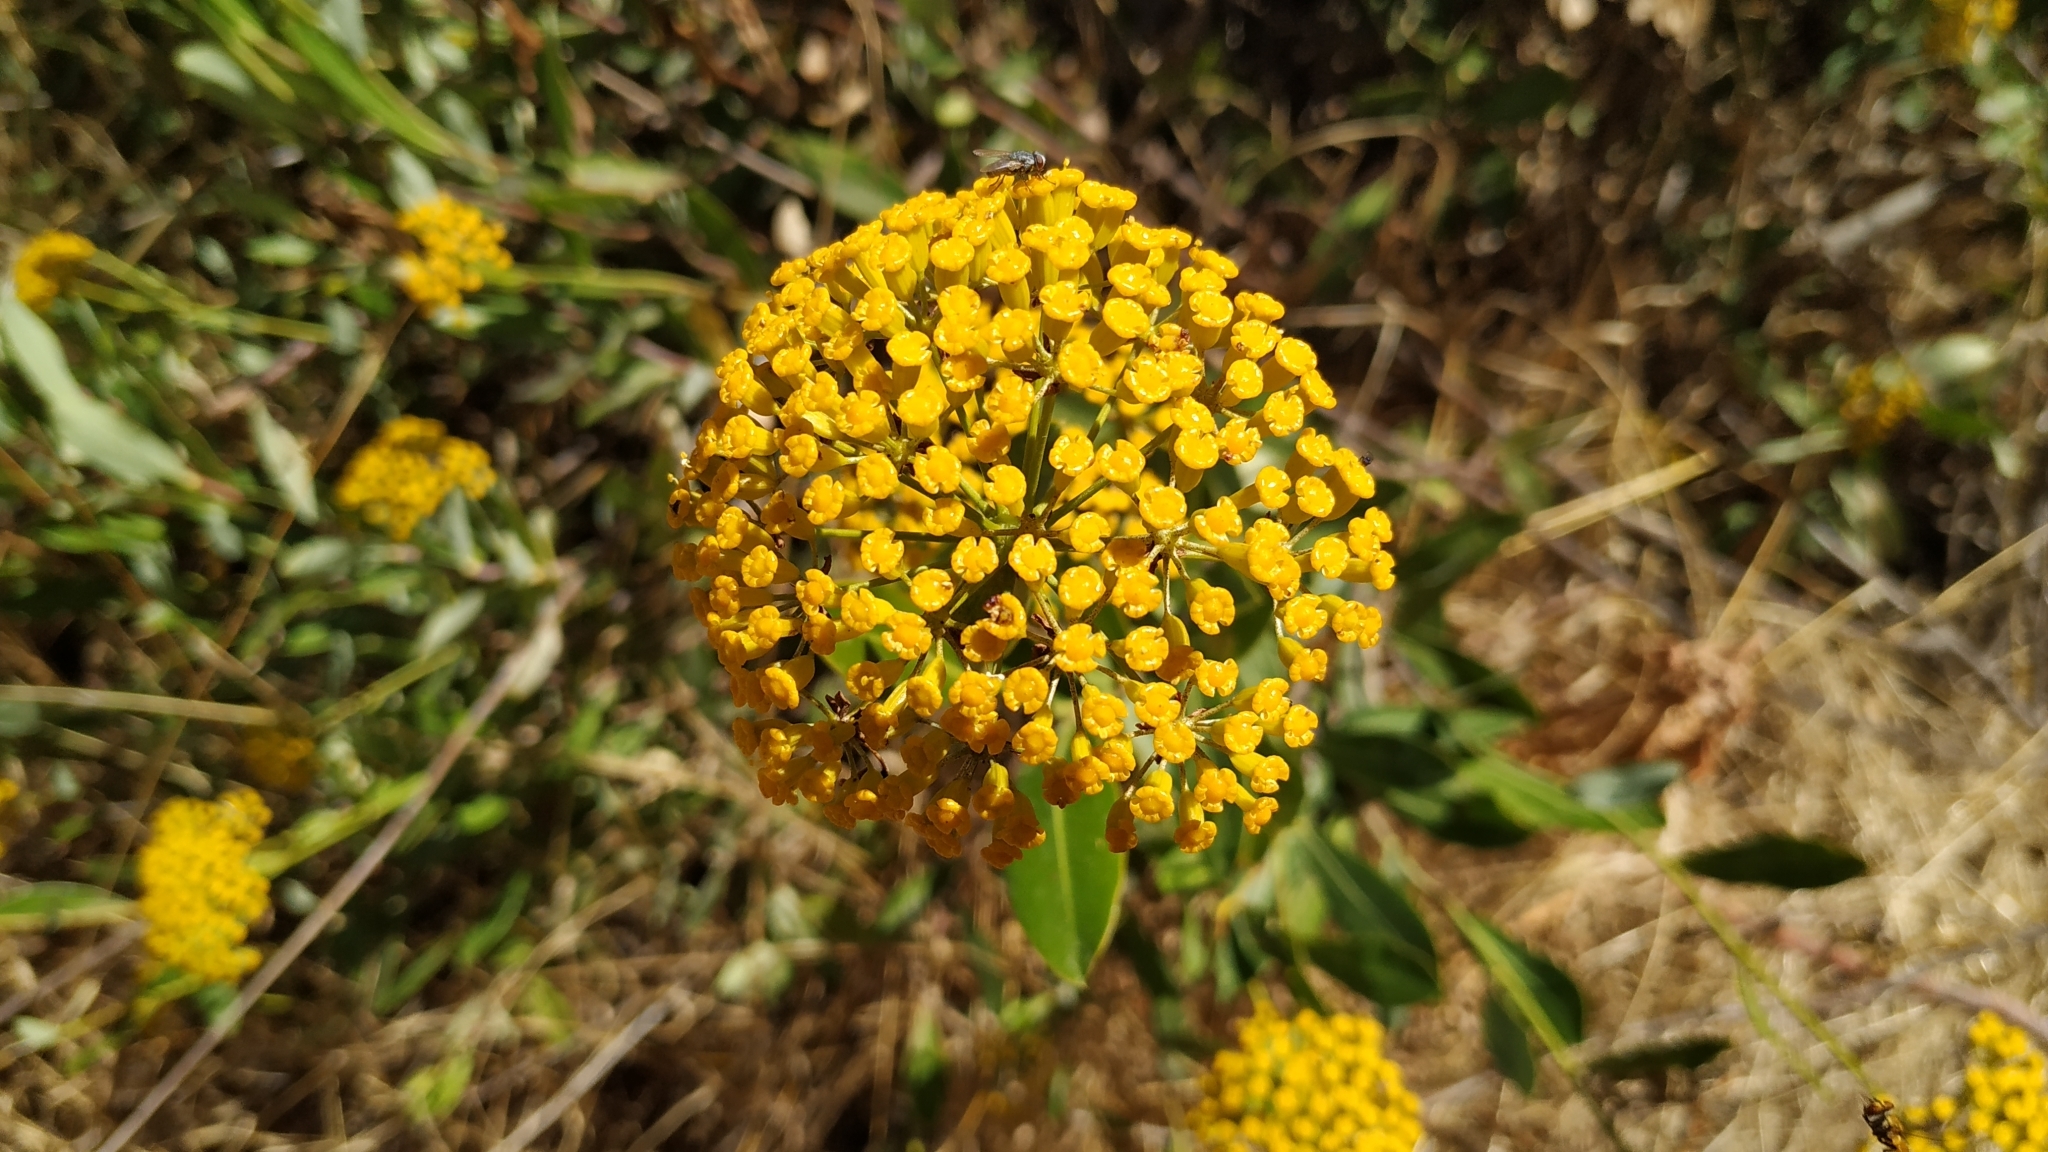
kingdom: Plantae
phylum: Tracheophyta
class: Magnoliopsida
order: Apiales
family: Apiaceae
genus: Bupleurum
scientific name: Bupleurum fruticosum
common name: Shrubby hare's-ear
